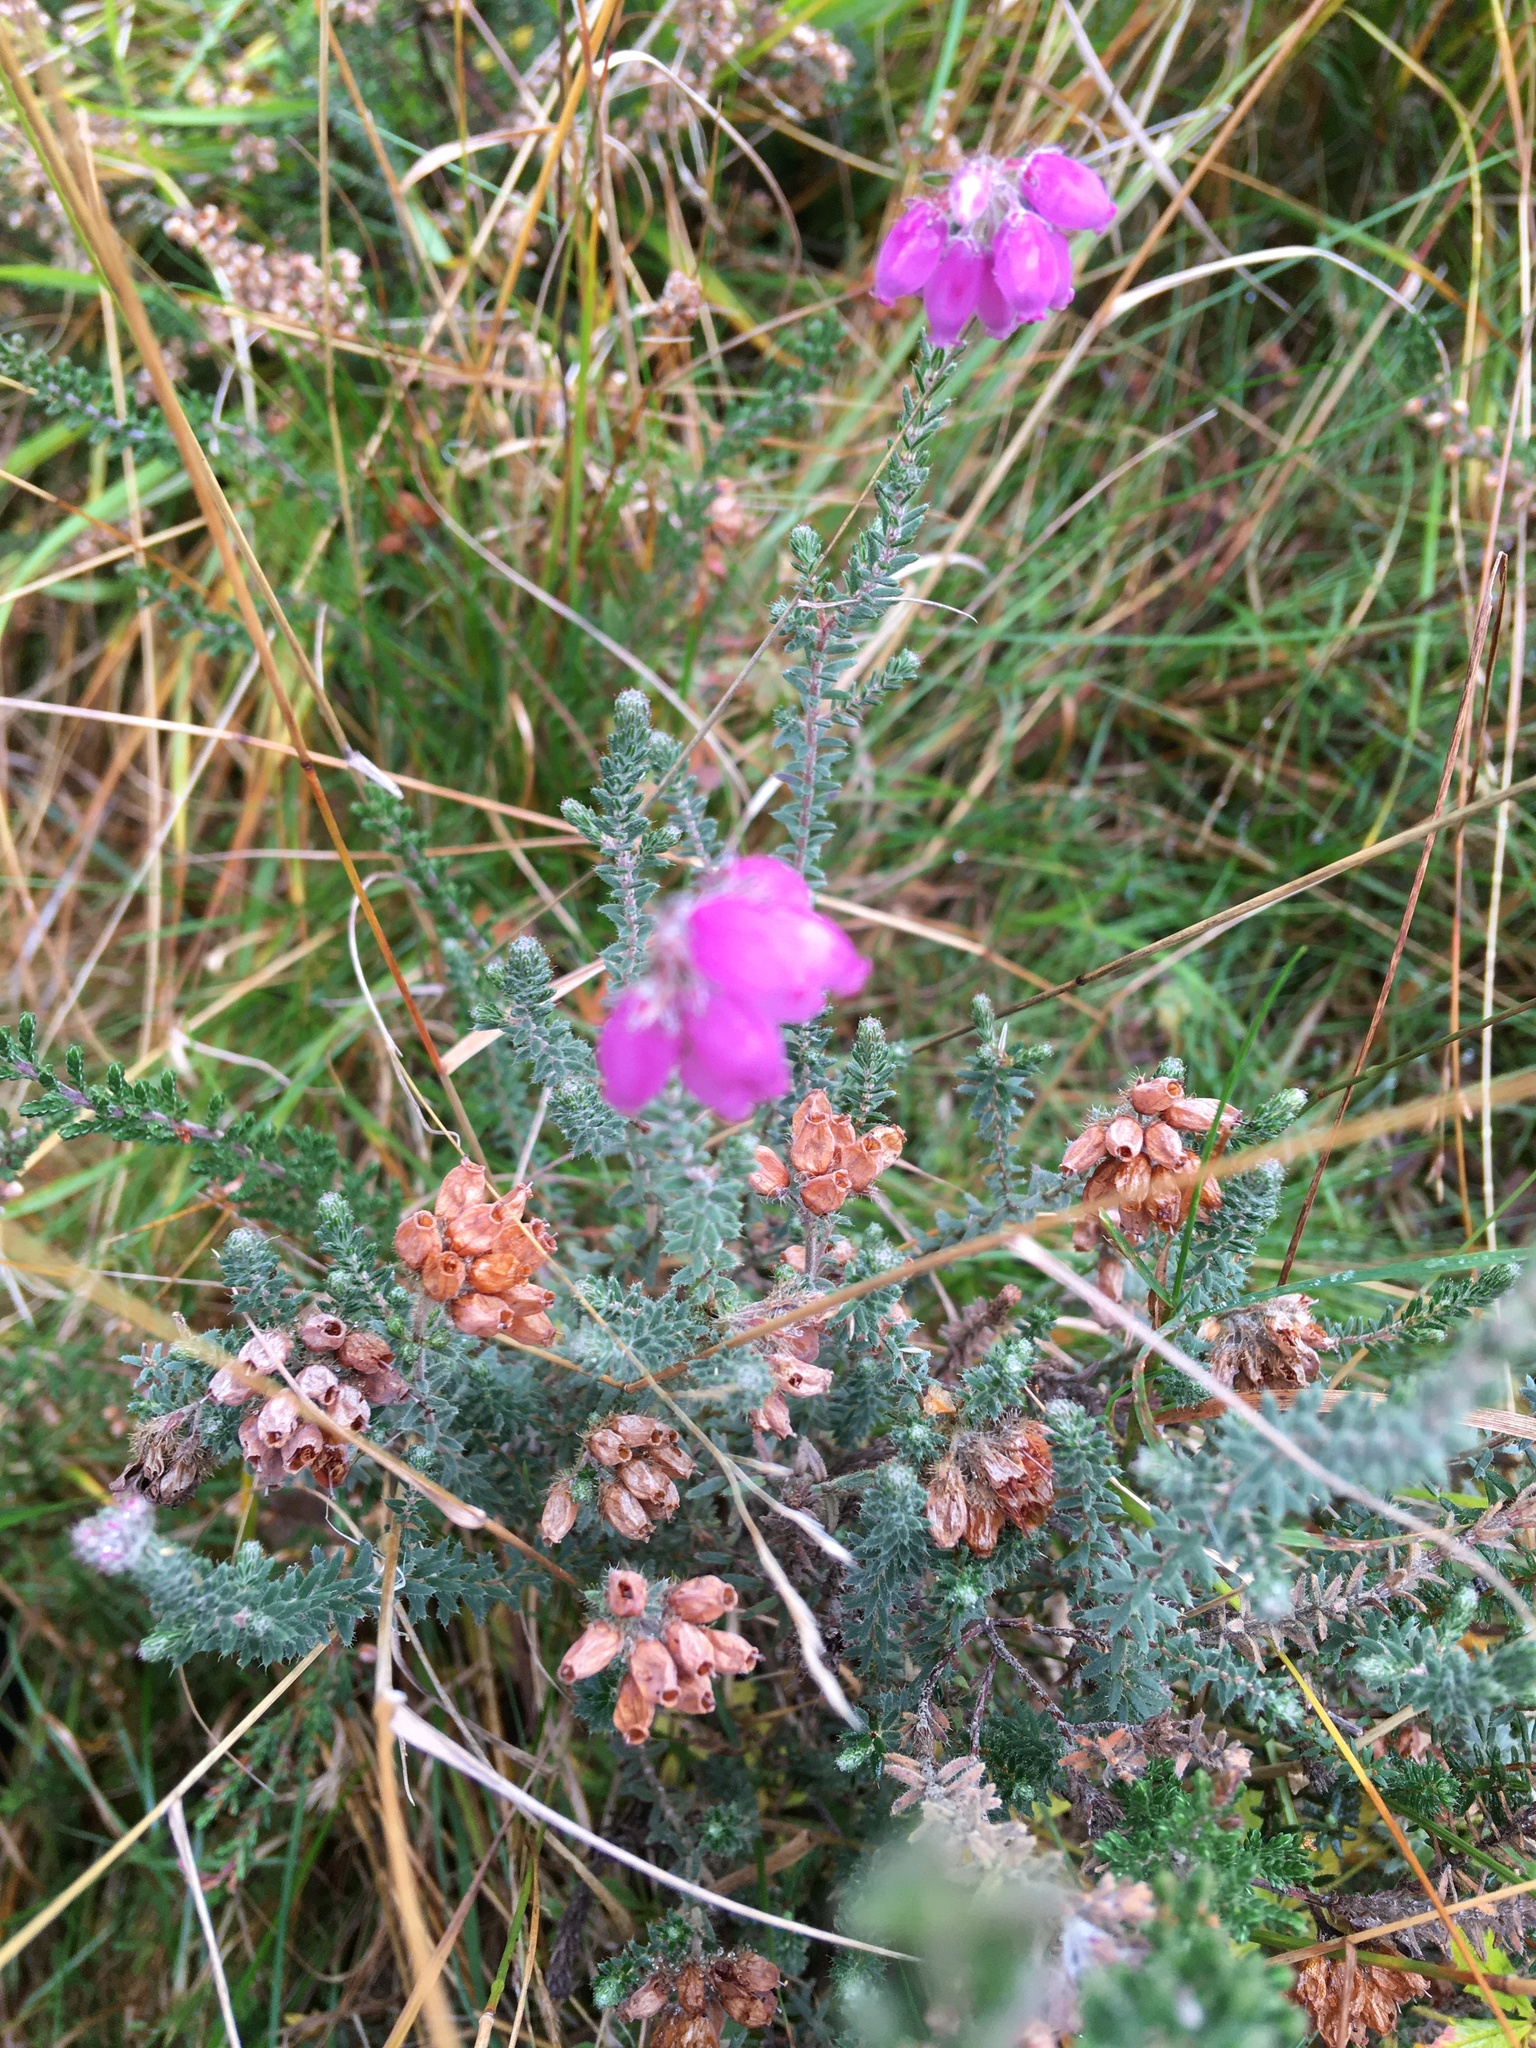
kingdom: Plantae
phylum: Tracheophyta
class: Magnoliopsida
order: Ericales
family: Ericaceae
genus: Erica
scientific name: Erica tetralix
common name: Cross-leaved heath
